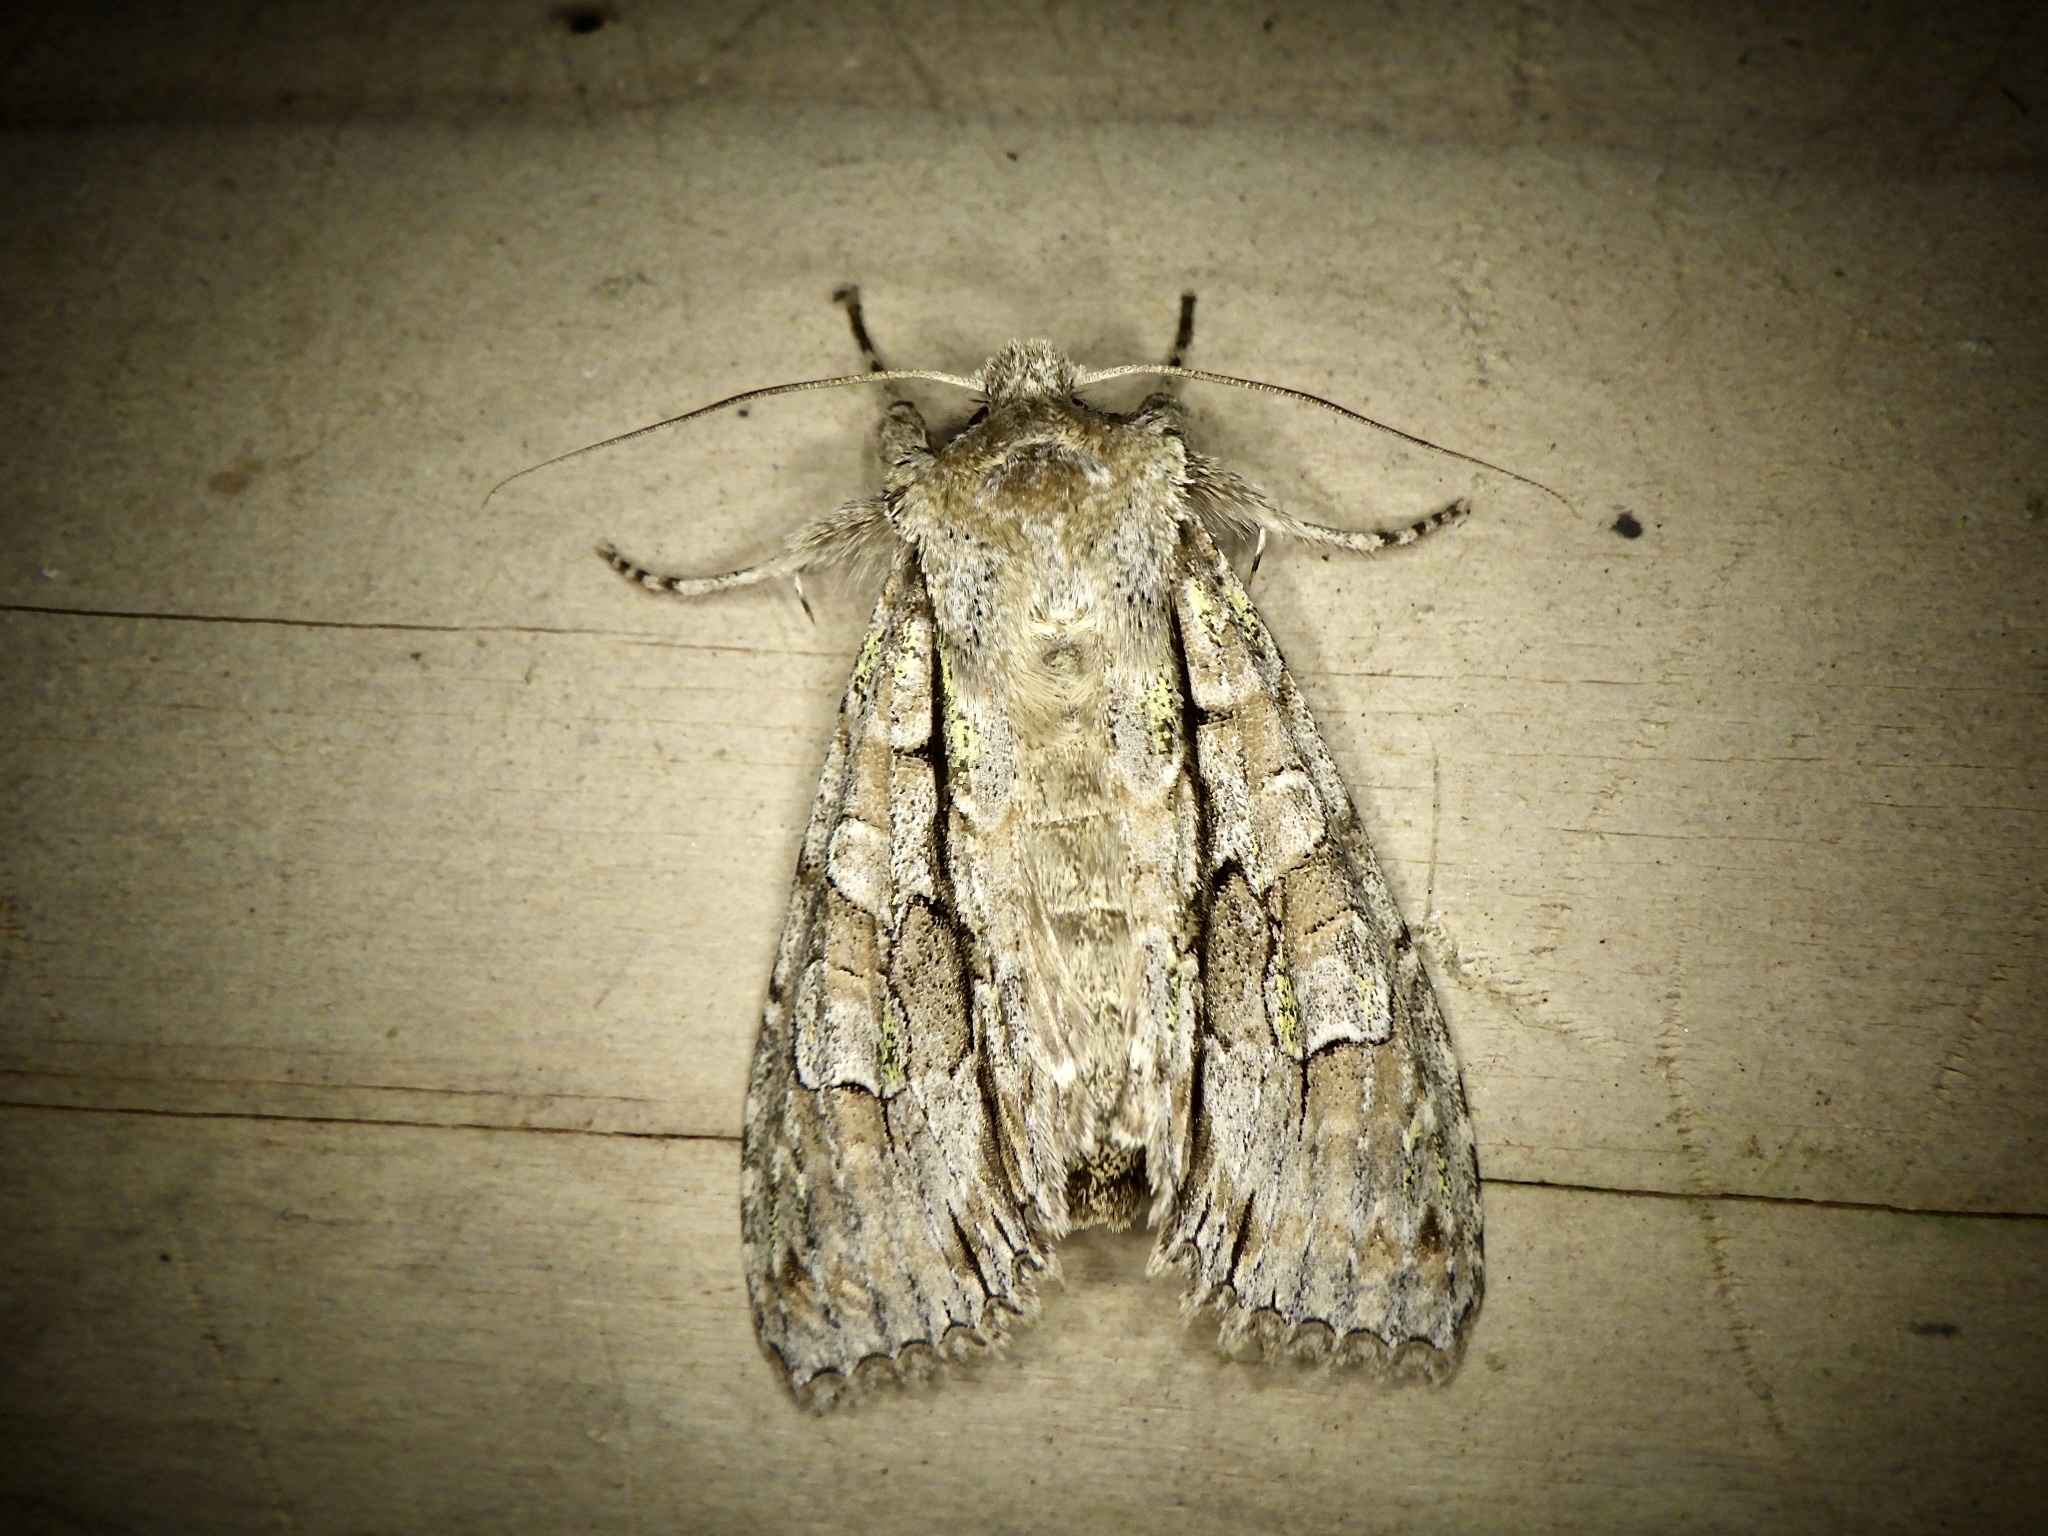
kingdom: Animalia
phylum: Arthropoda
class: Insecta
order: Lepidoptera
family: Noctuidae
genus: Meganephria
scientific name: Meganephria
